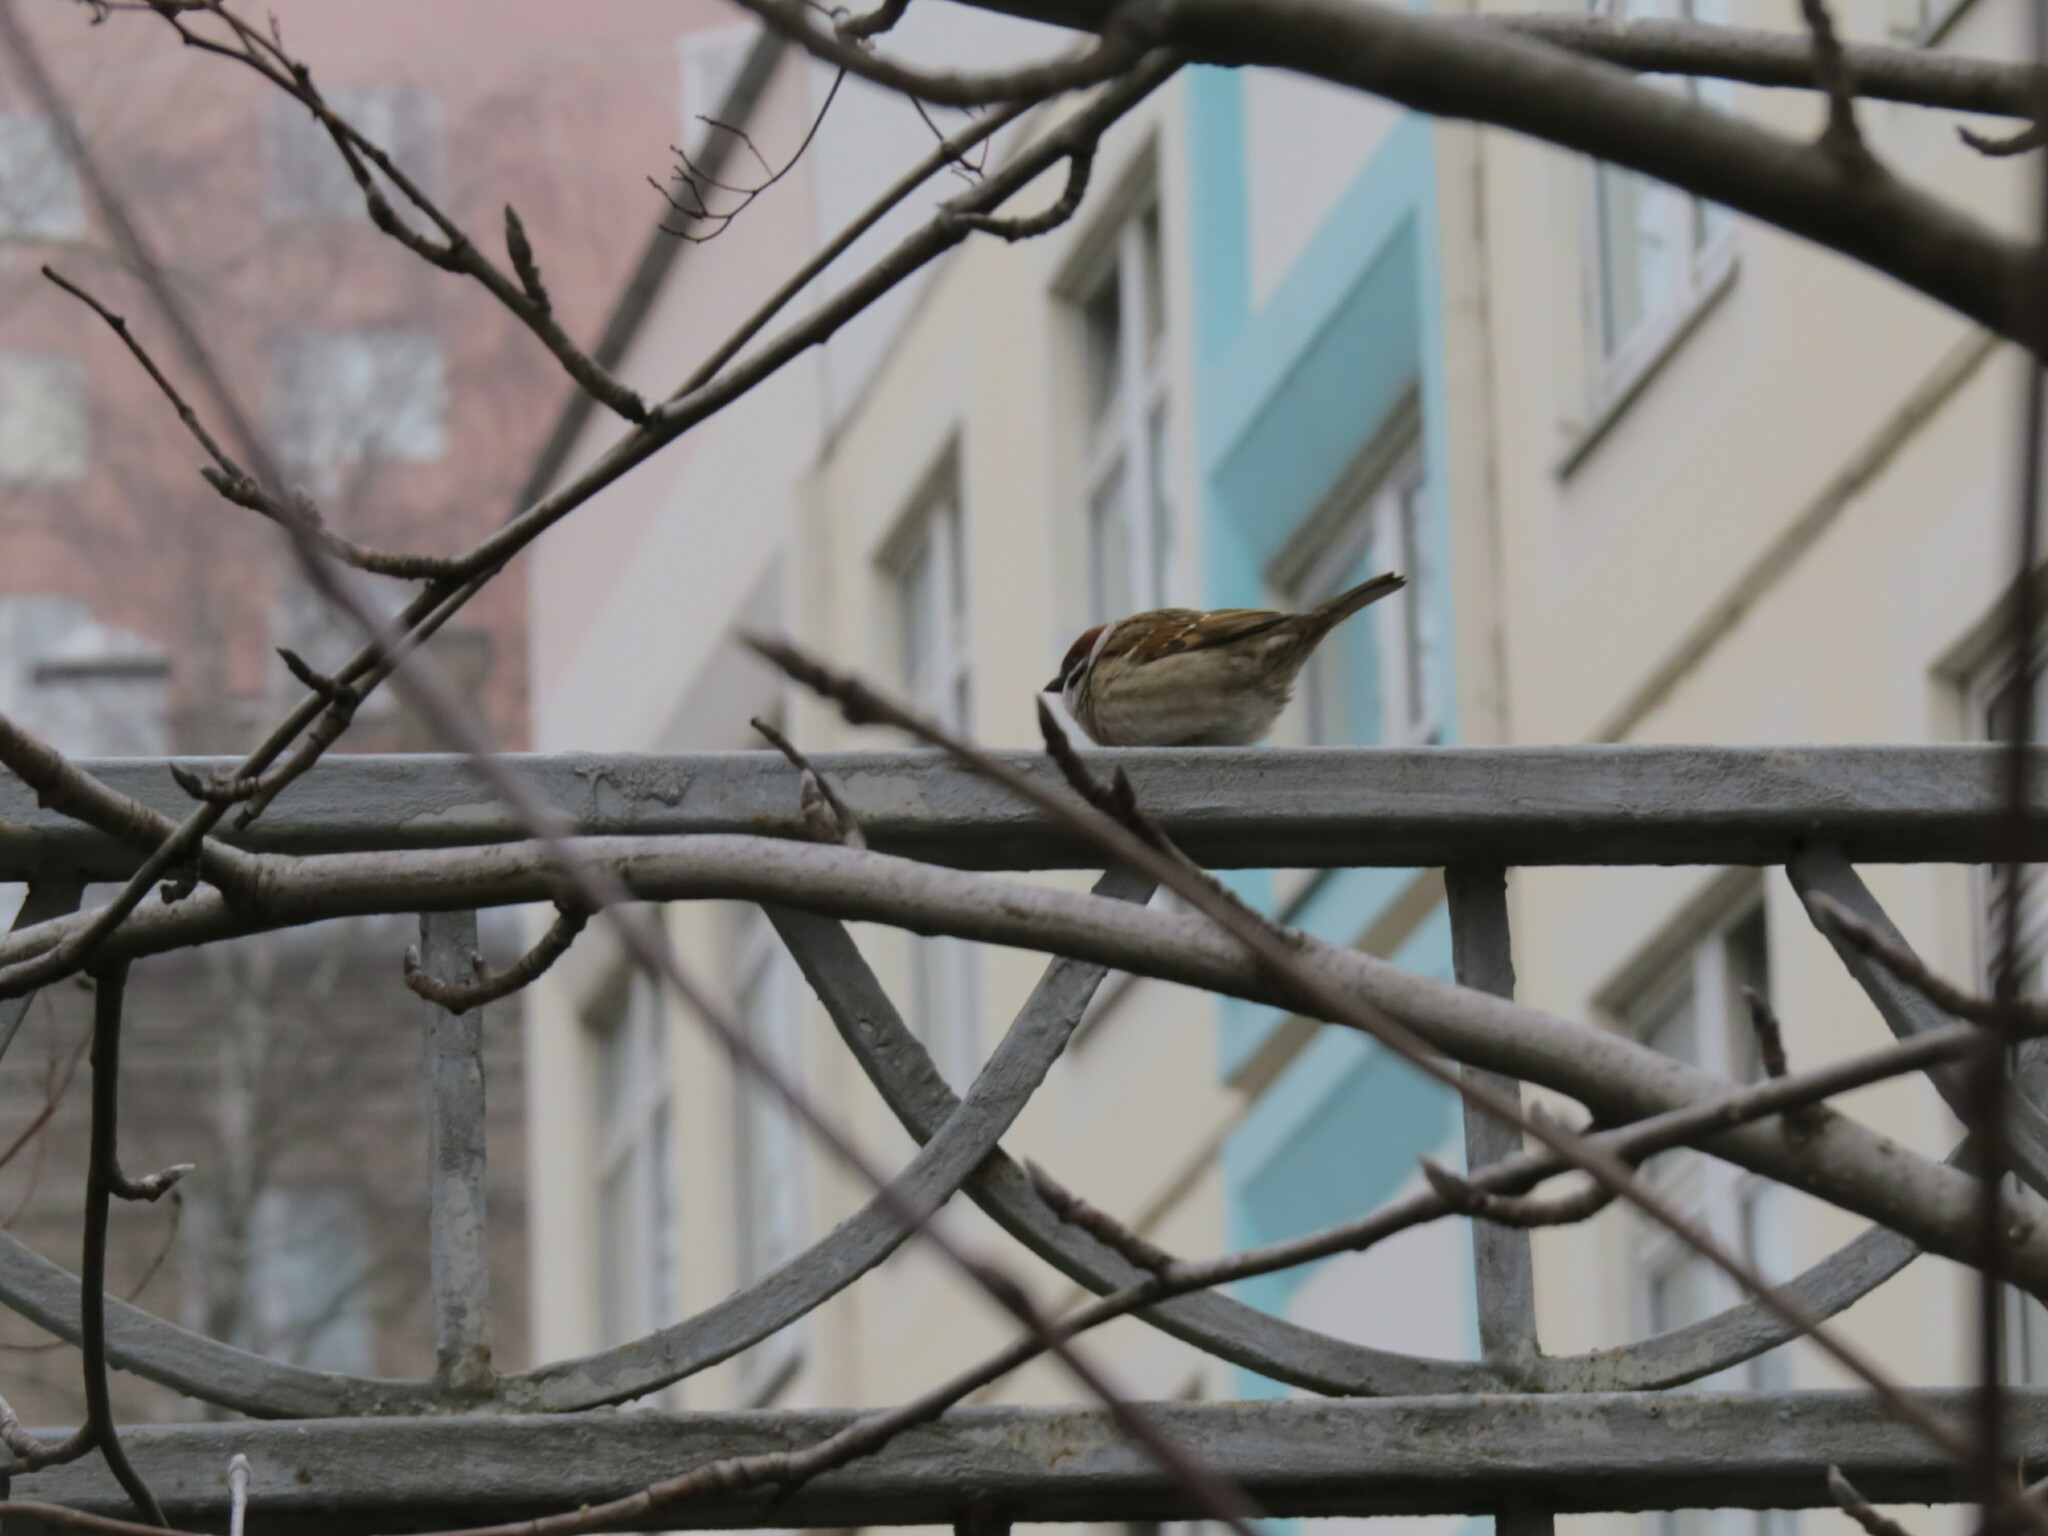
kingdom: Animalia
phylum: Chordata
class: Aves
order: Passeriformes
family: Passeridae
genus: Passer
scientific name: Passer montanus
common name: Eurasian tree sparrow
